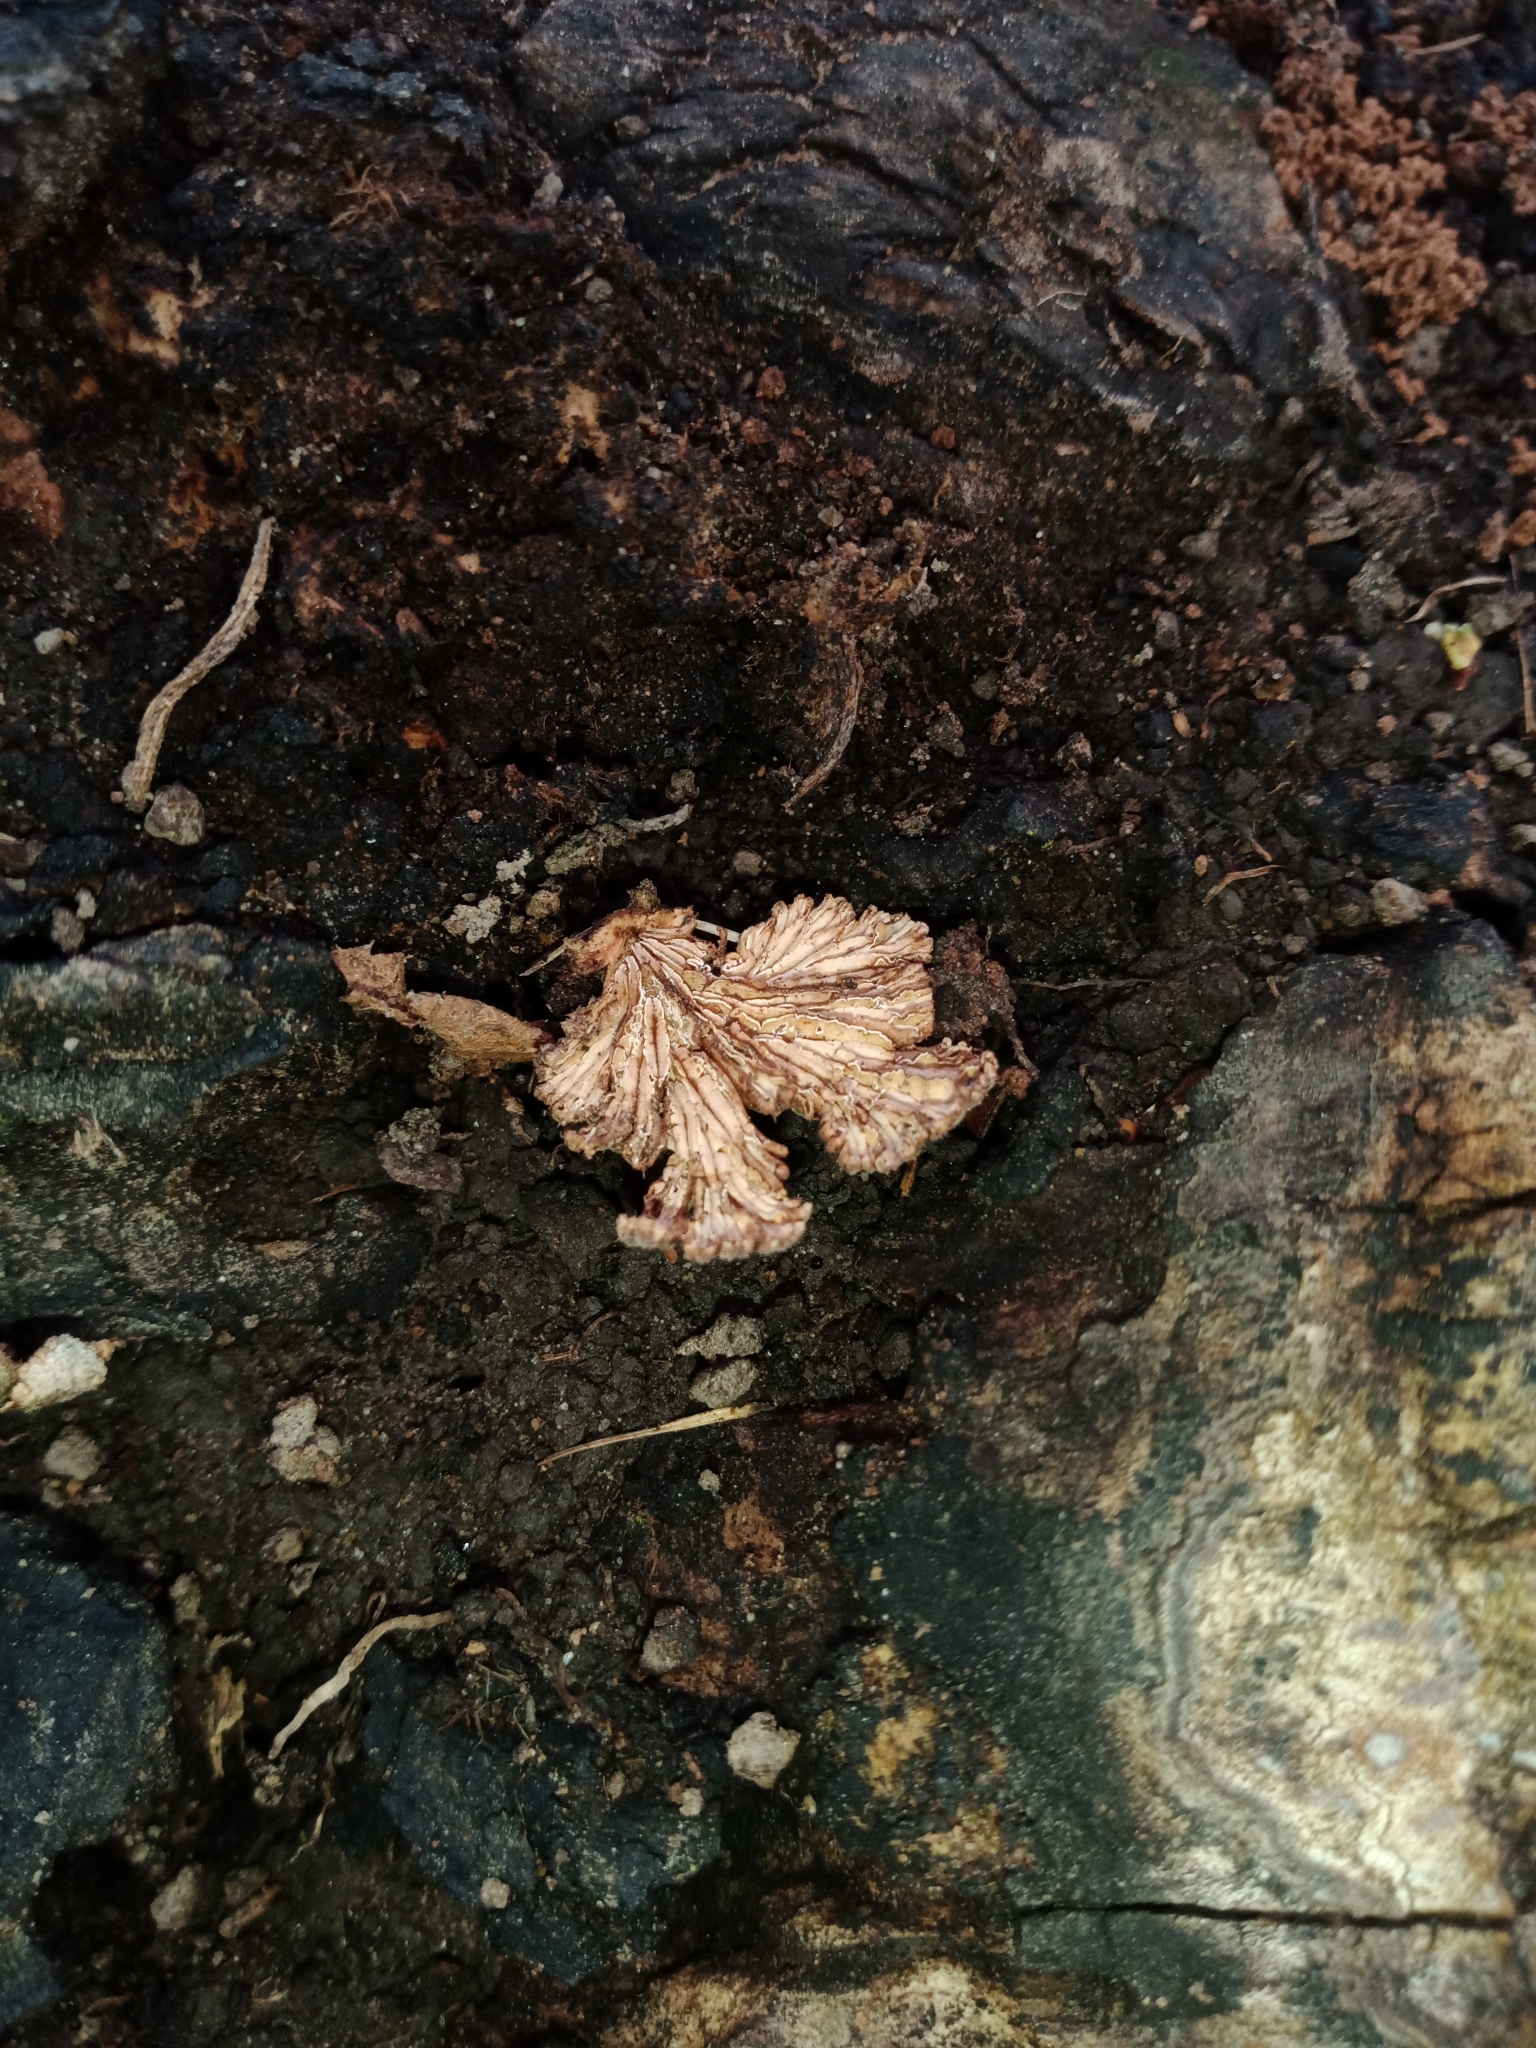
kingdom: Fungi
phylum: Basidiomycota
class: Agaricomycetes
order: Agaricales
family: Schizophyllaceae
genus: Schizophyllum
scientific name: Schizophyllum commune
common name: Common porecrust
